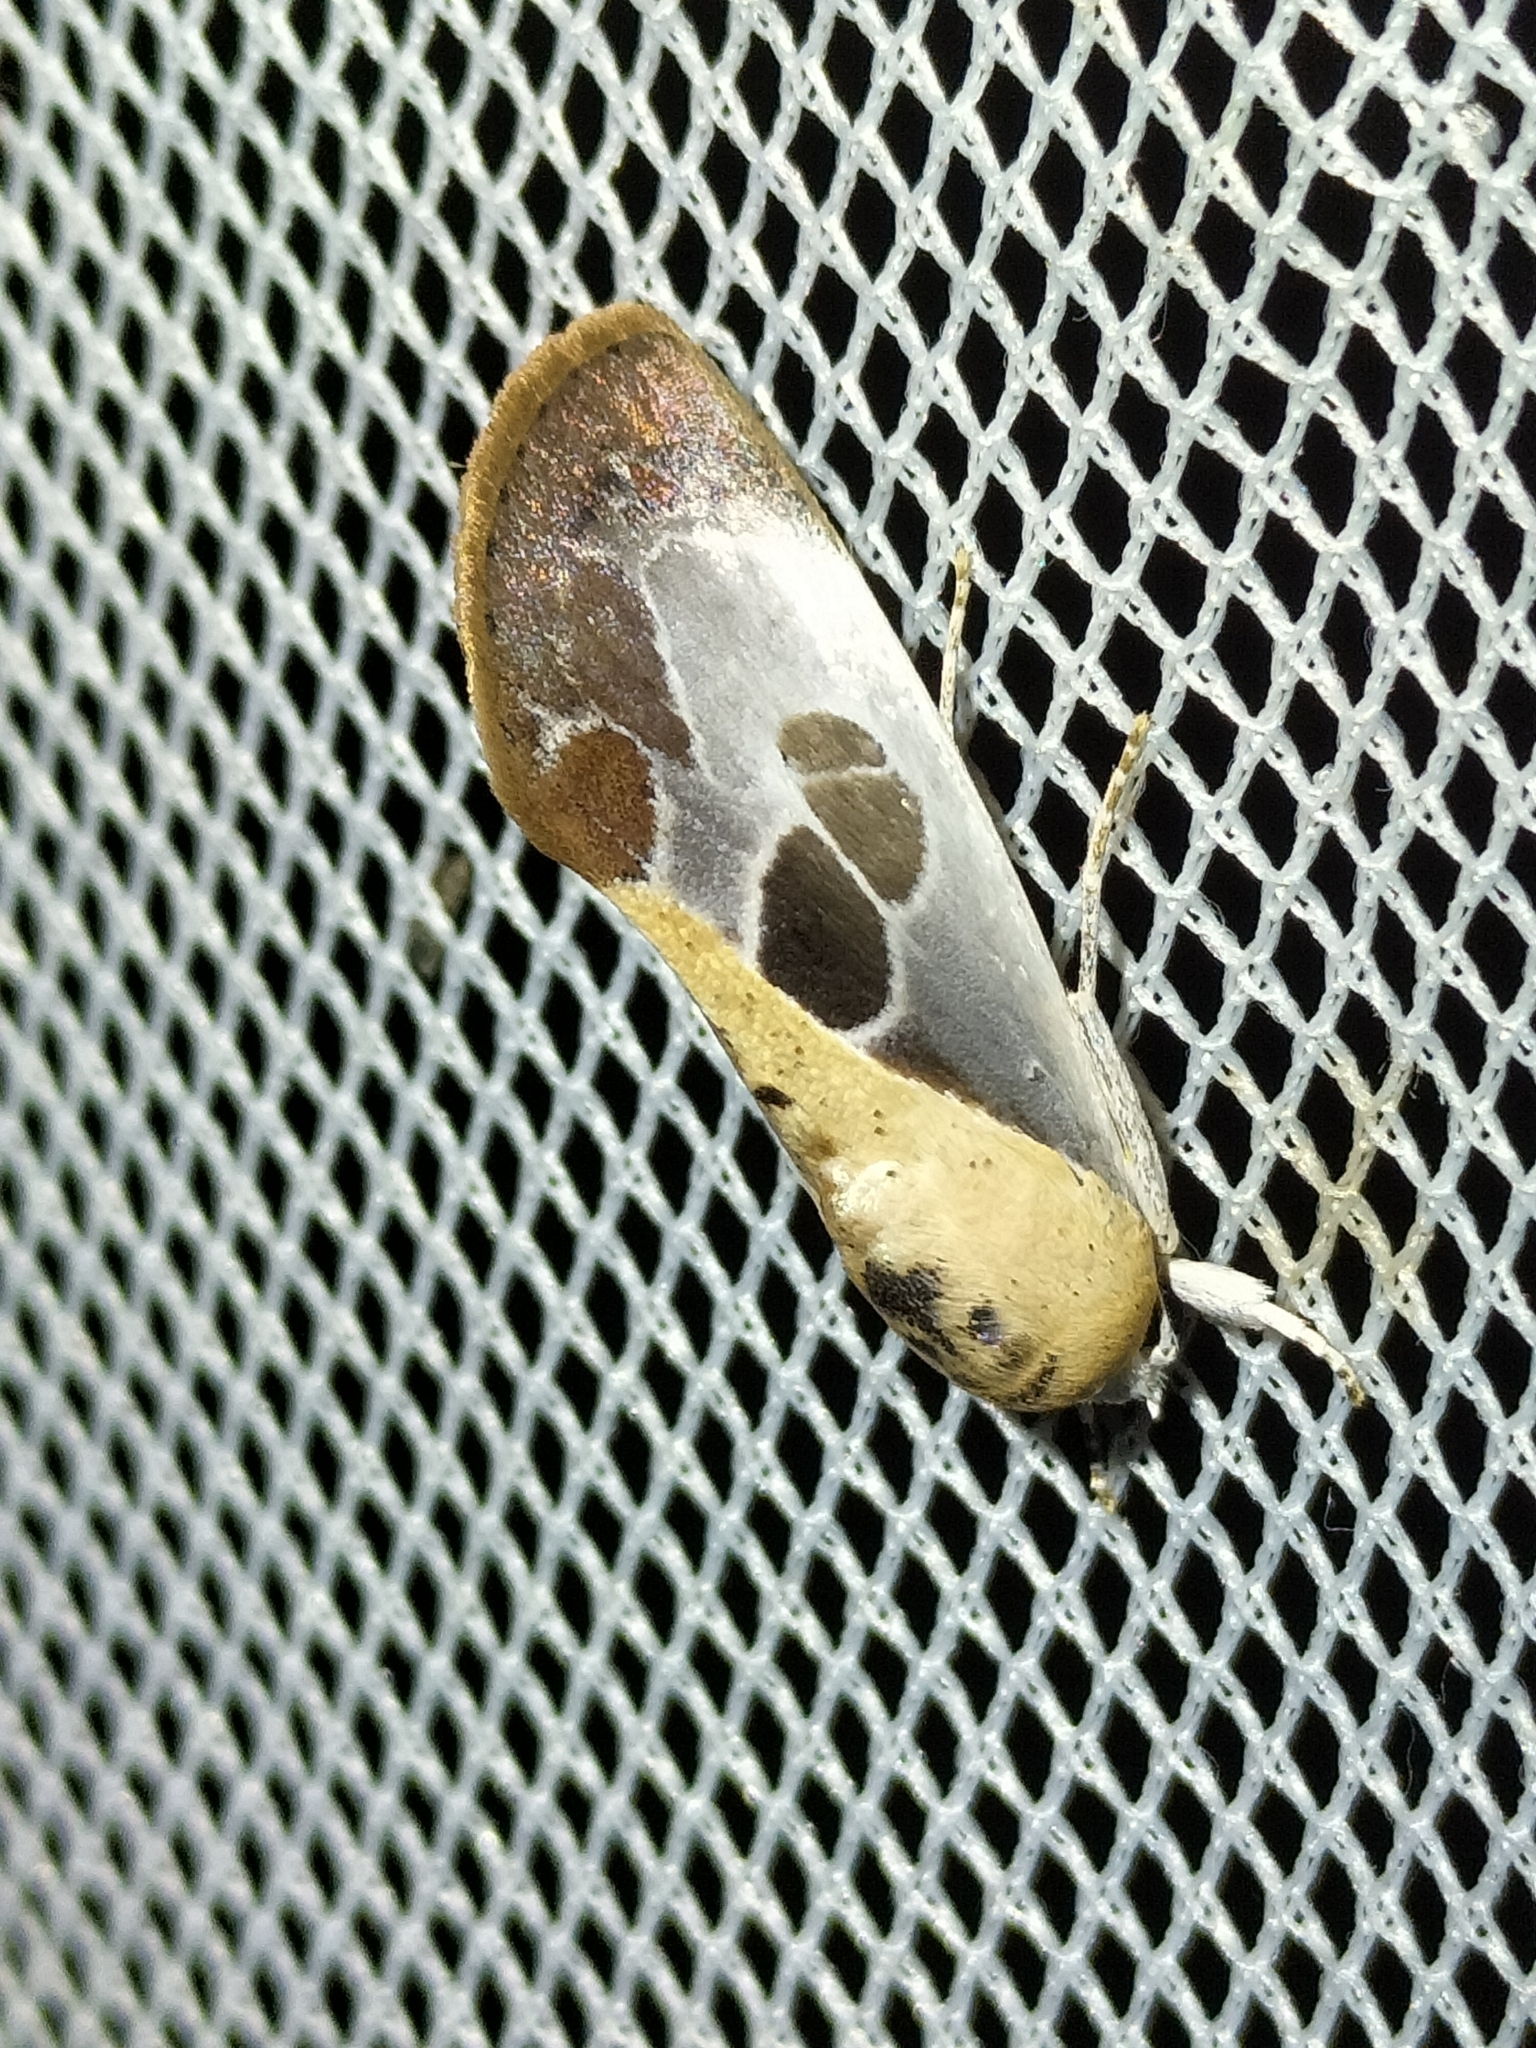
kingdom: Animalia
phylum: Arthropoda
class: Insecta
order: Lepidoptera
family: Nolidae
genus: Westermannia
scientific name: Westermannia gloriosa
